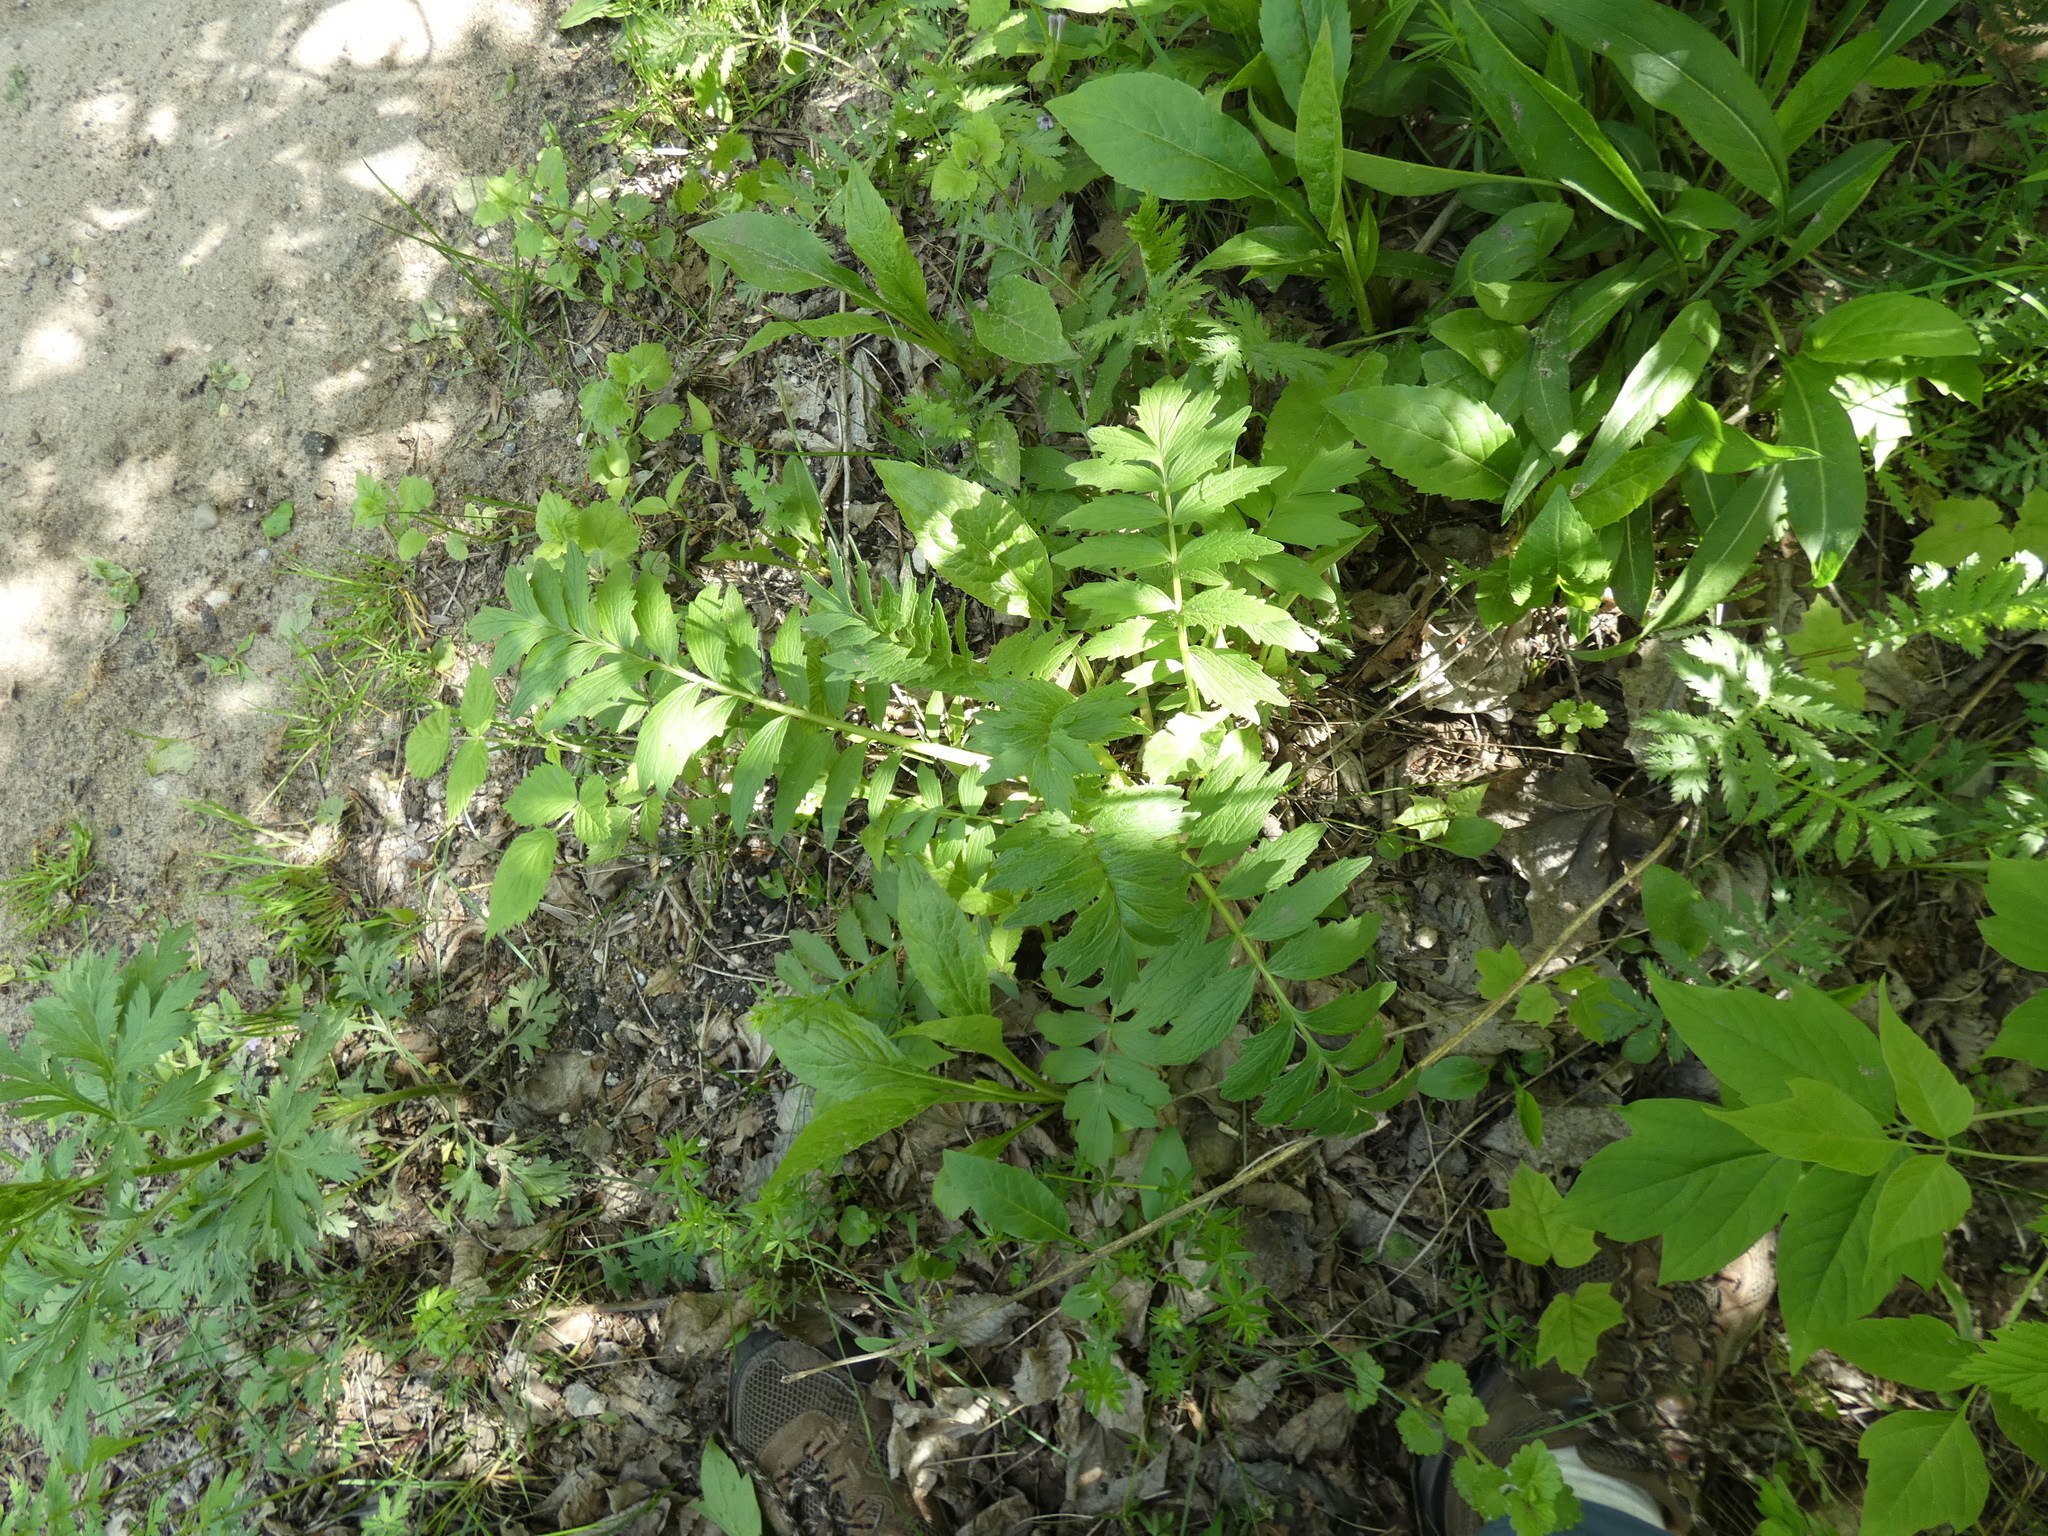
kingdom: Plantae
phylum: Tracheophyta
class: Magnoliopsida
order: Dipsacales
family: Caprifoliaceae
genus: Valeriana
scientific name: Valeriana officinalis
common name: Common valerian
